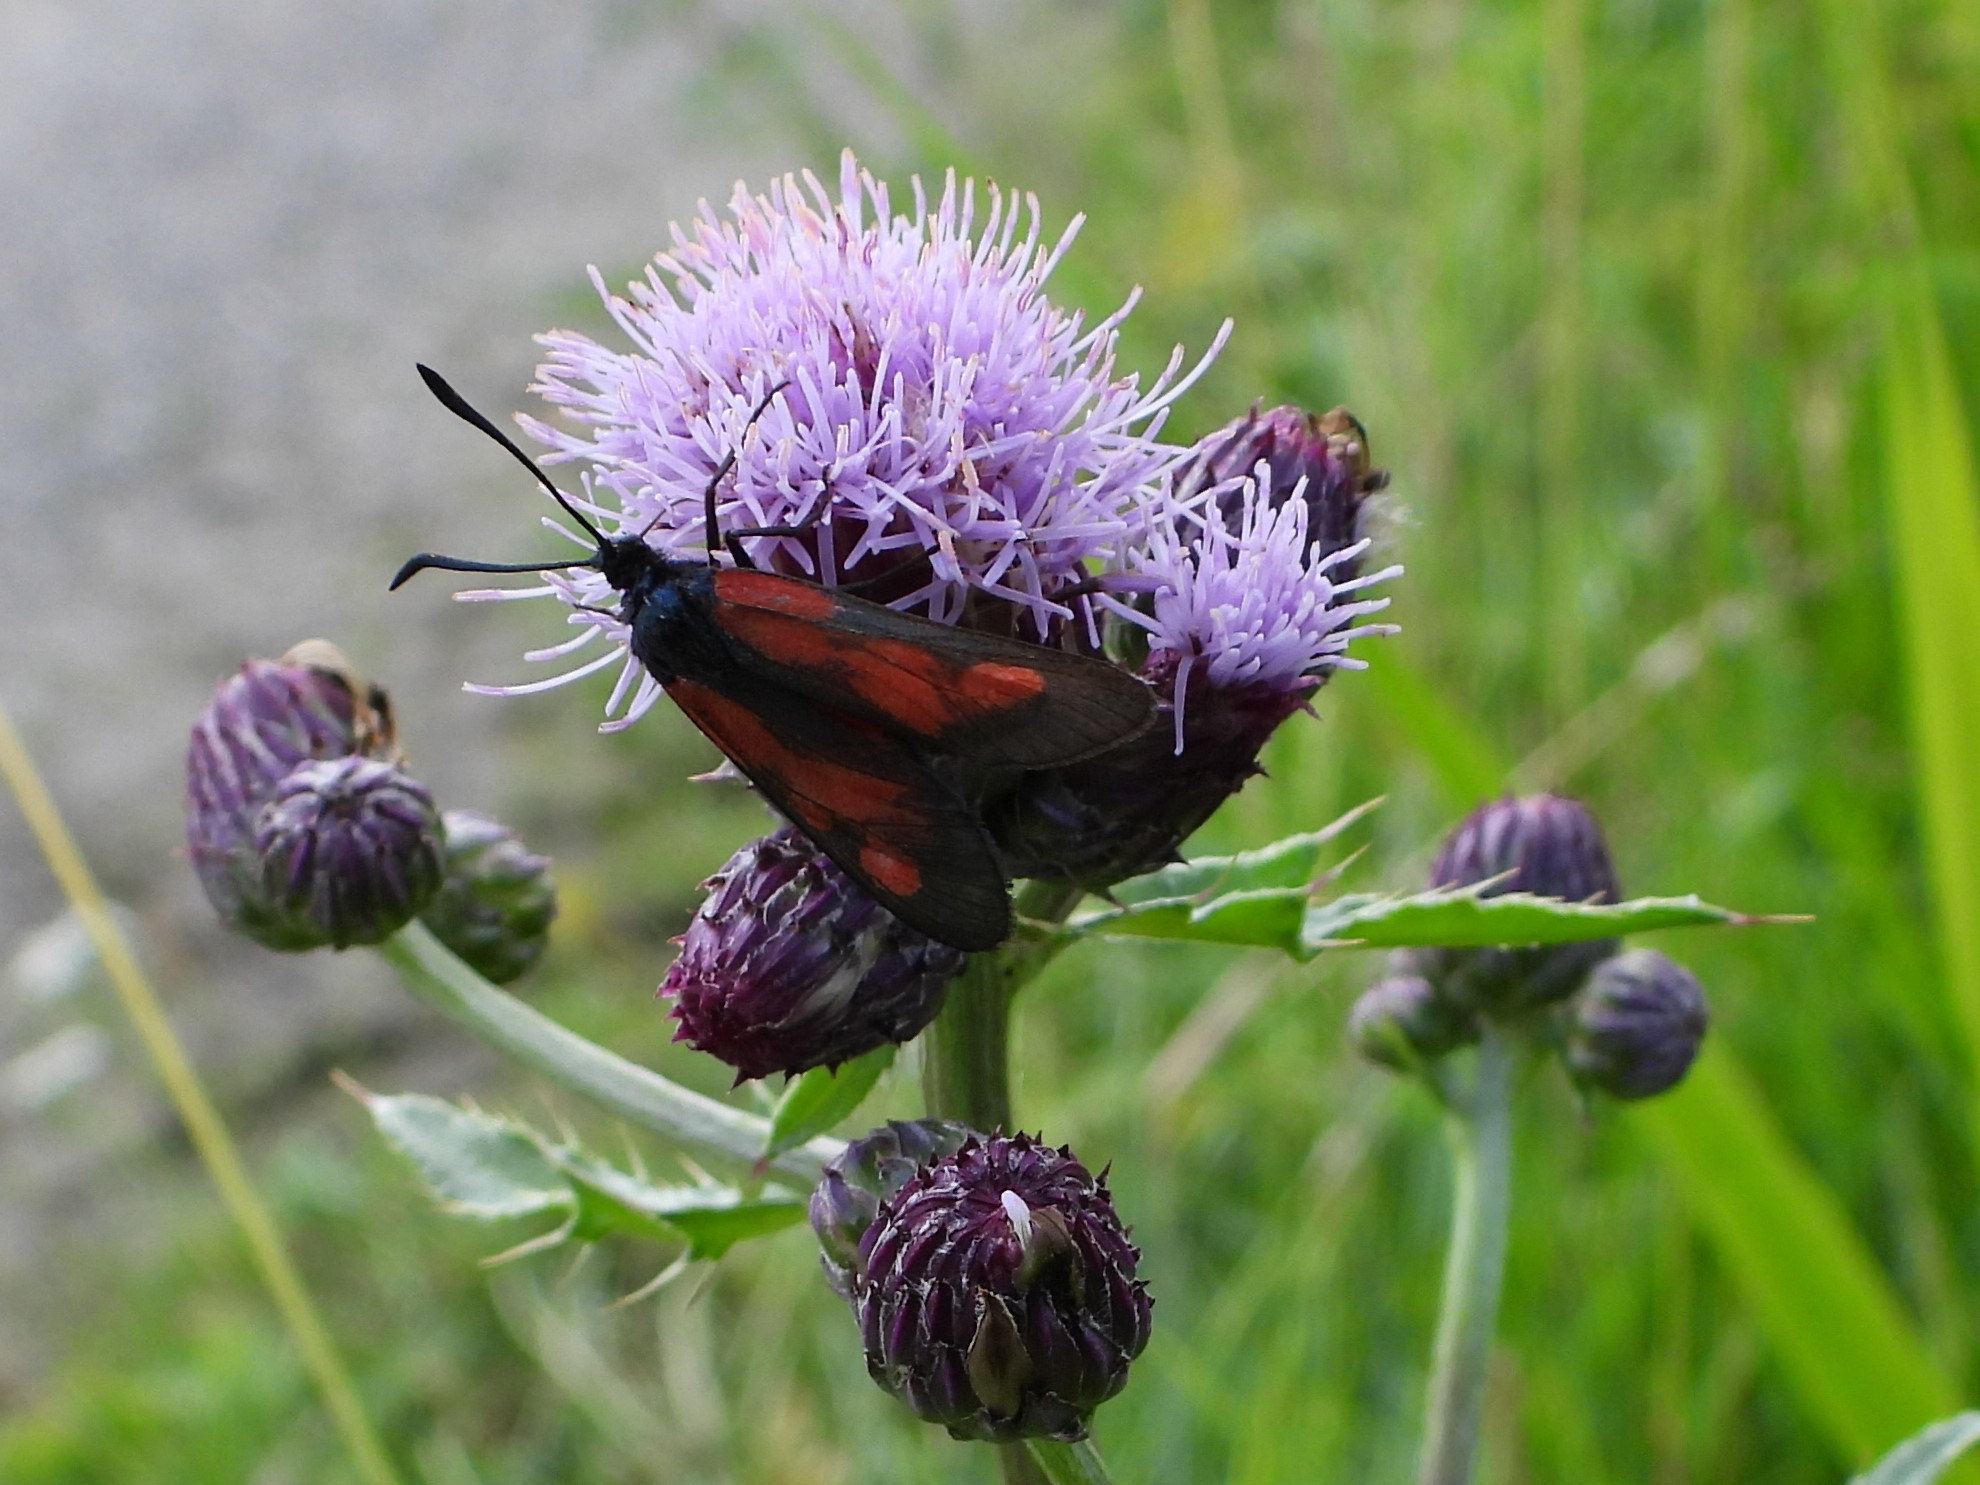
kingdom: Animalia
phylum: Arthropoda
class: Insecta
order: Lepidoptera
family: Zygaenidae
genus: Zygaena
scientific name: Zygaena viciae
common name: New forest burnet
